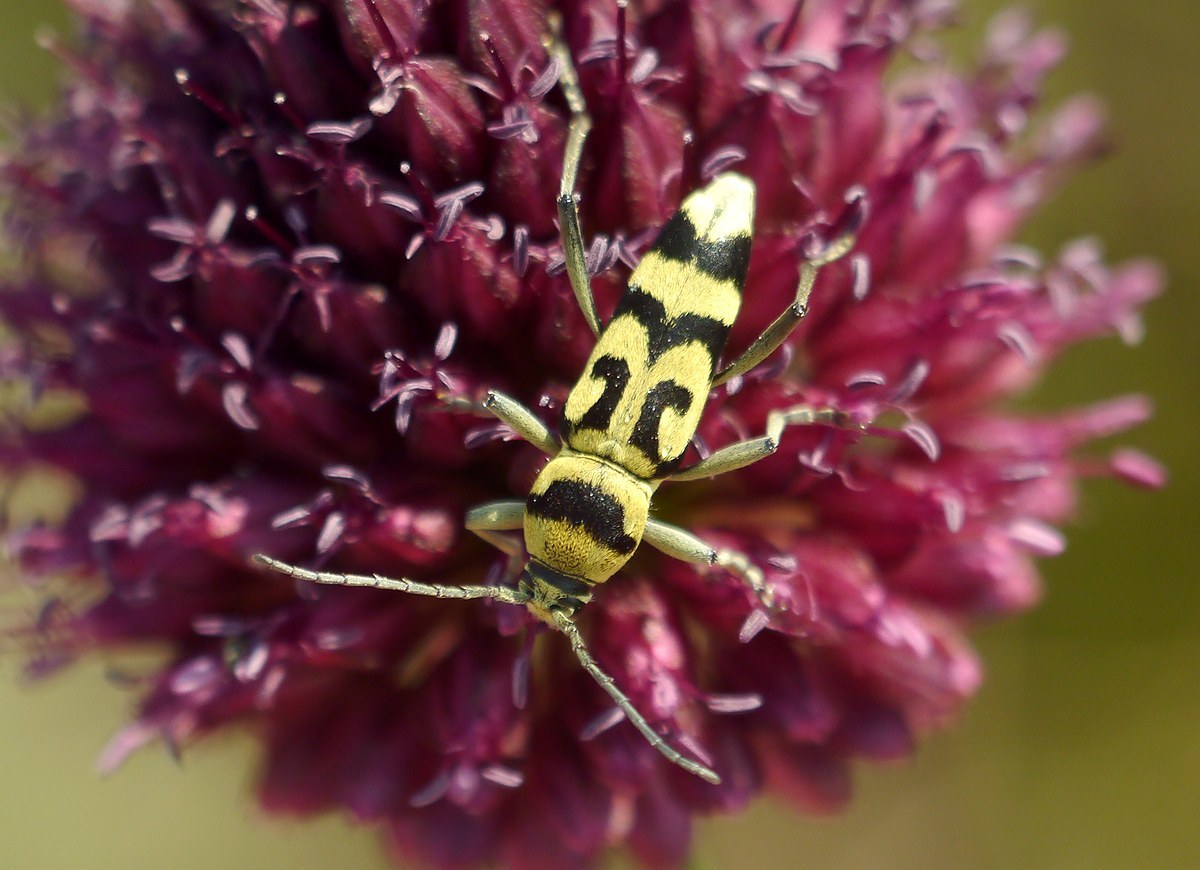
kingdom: Animalia
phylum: Arthropoda
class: Insecta
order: Coleoptera
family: Cerambycidae
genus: Chlorophorus
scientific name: Chlorophorus varius
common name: Grape wood borer
